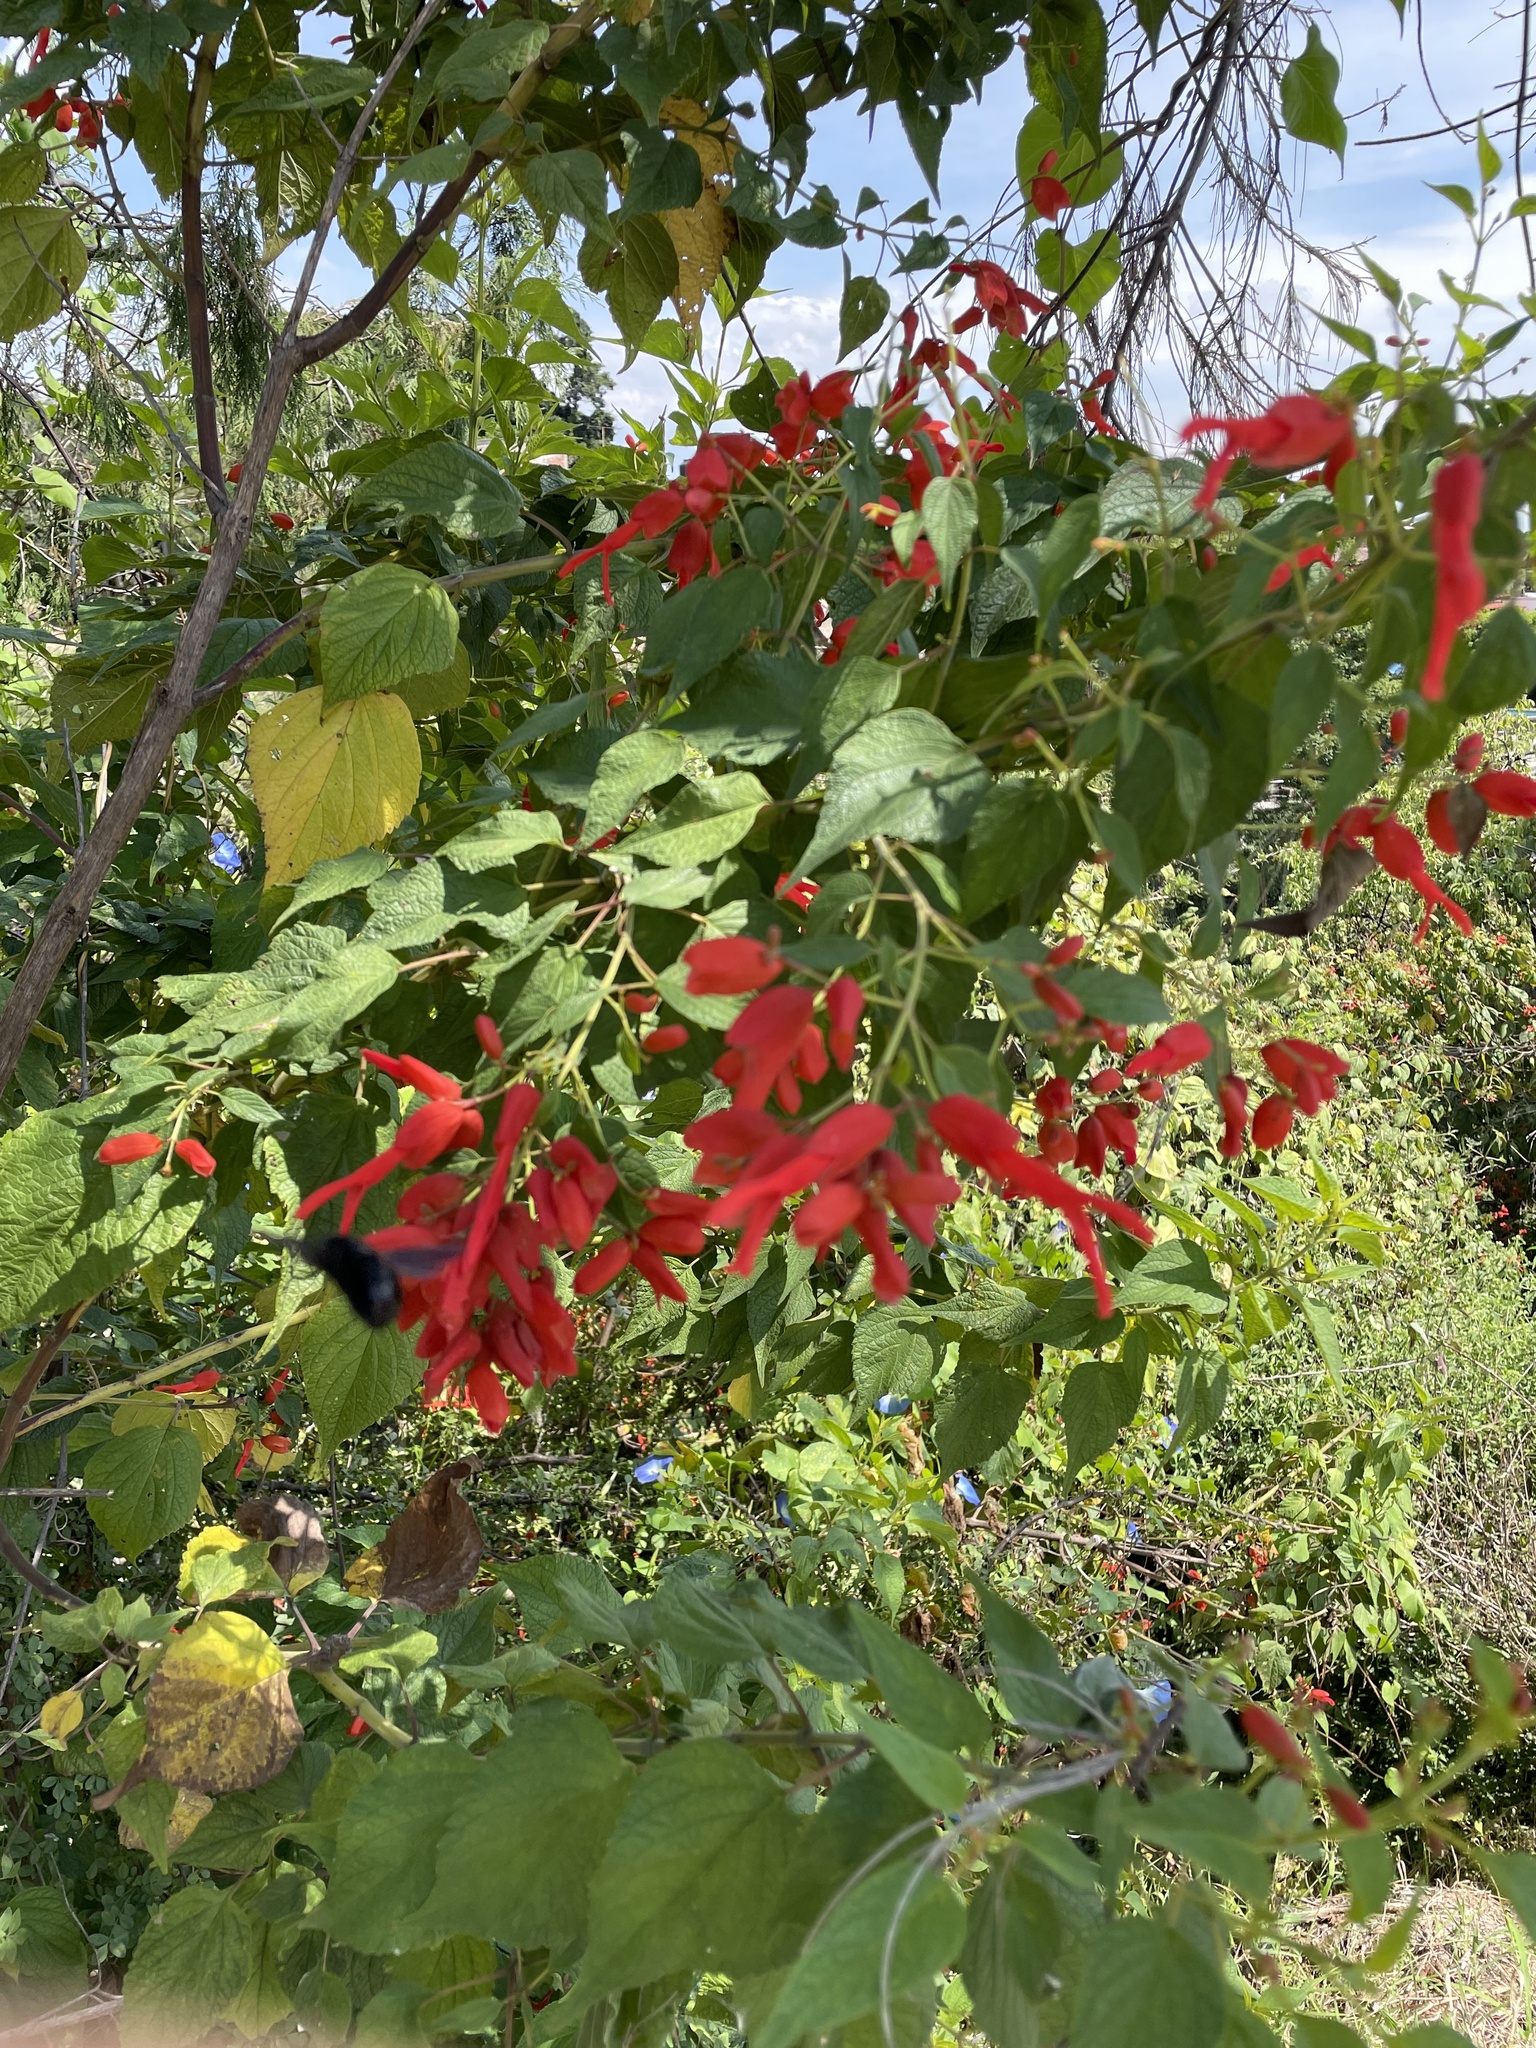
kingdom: Plantae
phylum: Tracheophyta
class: Magnoliopsida
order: Lamiales
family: Lamiaceae
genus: Salvia
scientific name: Salvia sessei
